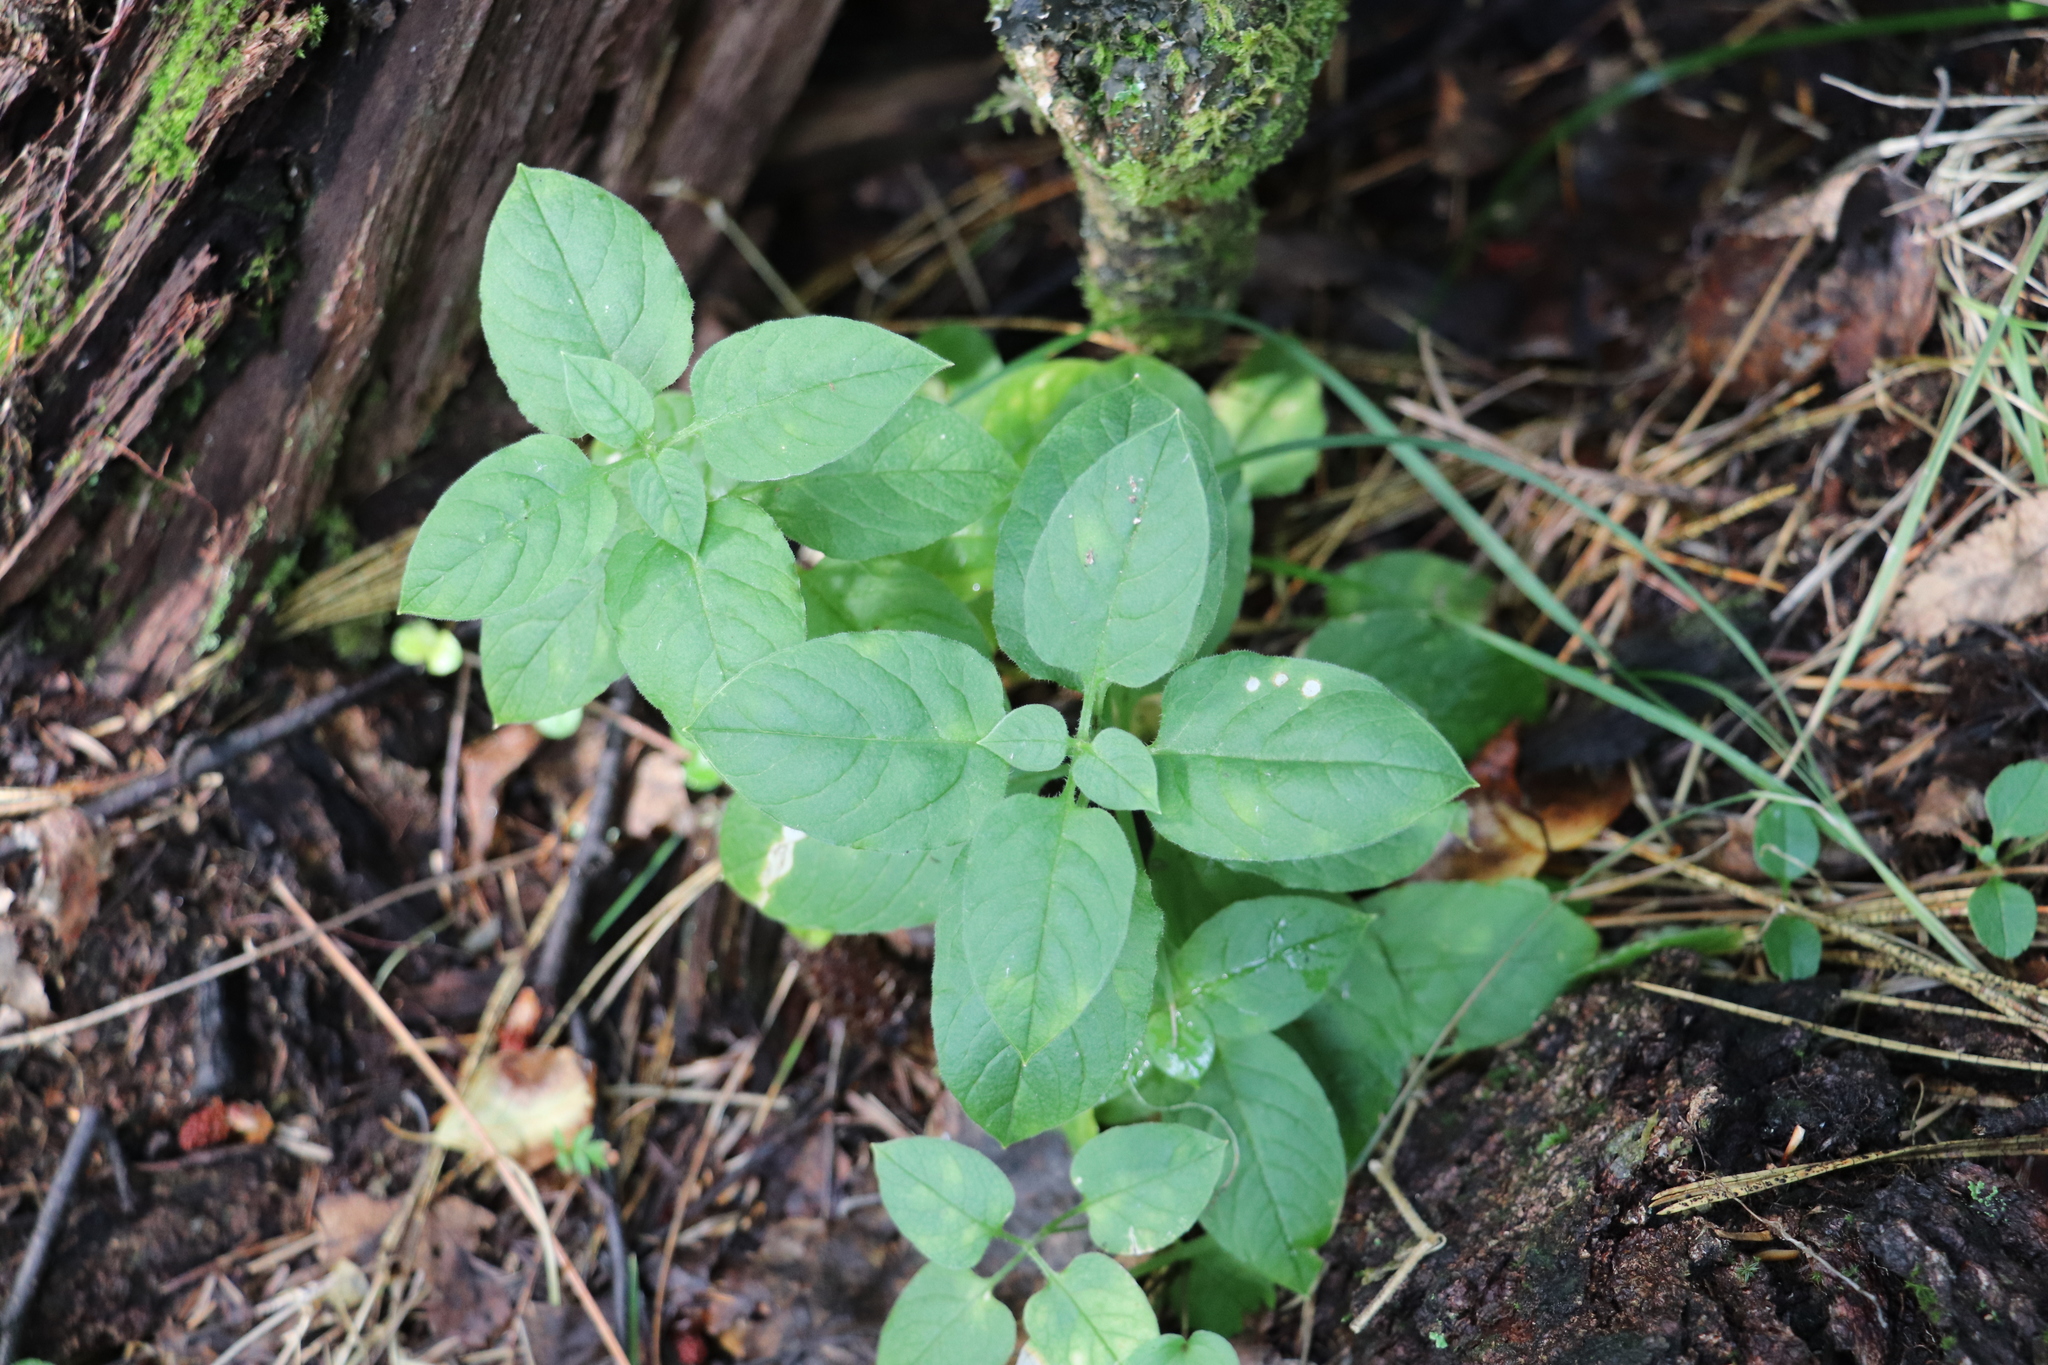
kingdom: Plantae
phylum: Tracheophyta
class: Magnoliopsida
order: Caryophyllales
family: Caryophyllaceae
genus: Stellaria
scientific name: Stellaria bungeana
